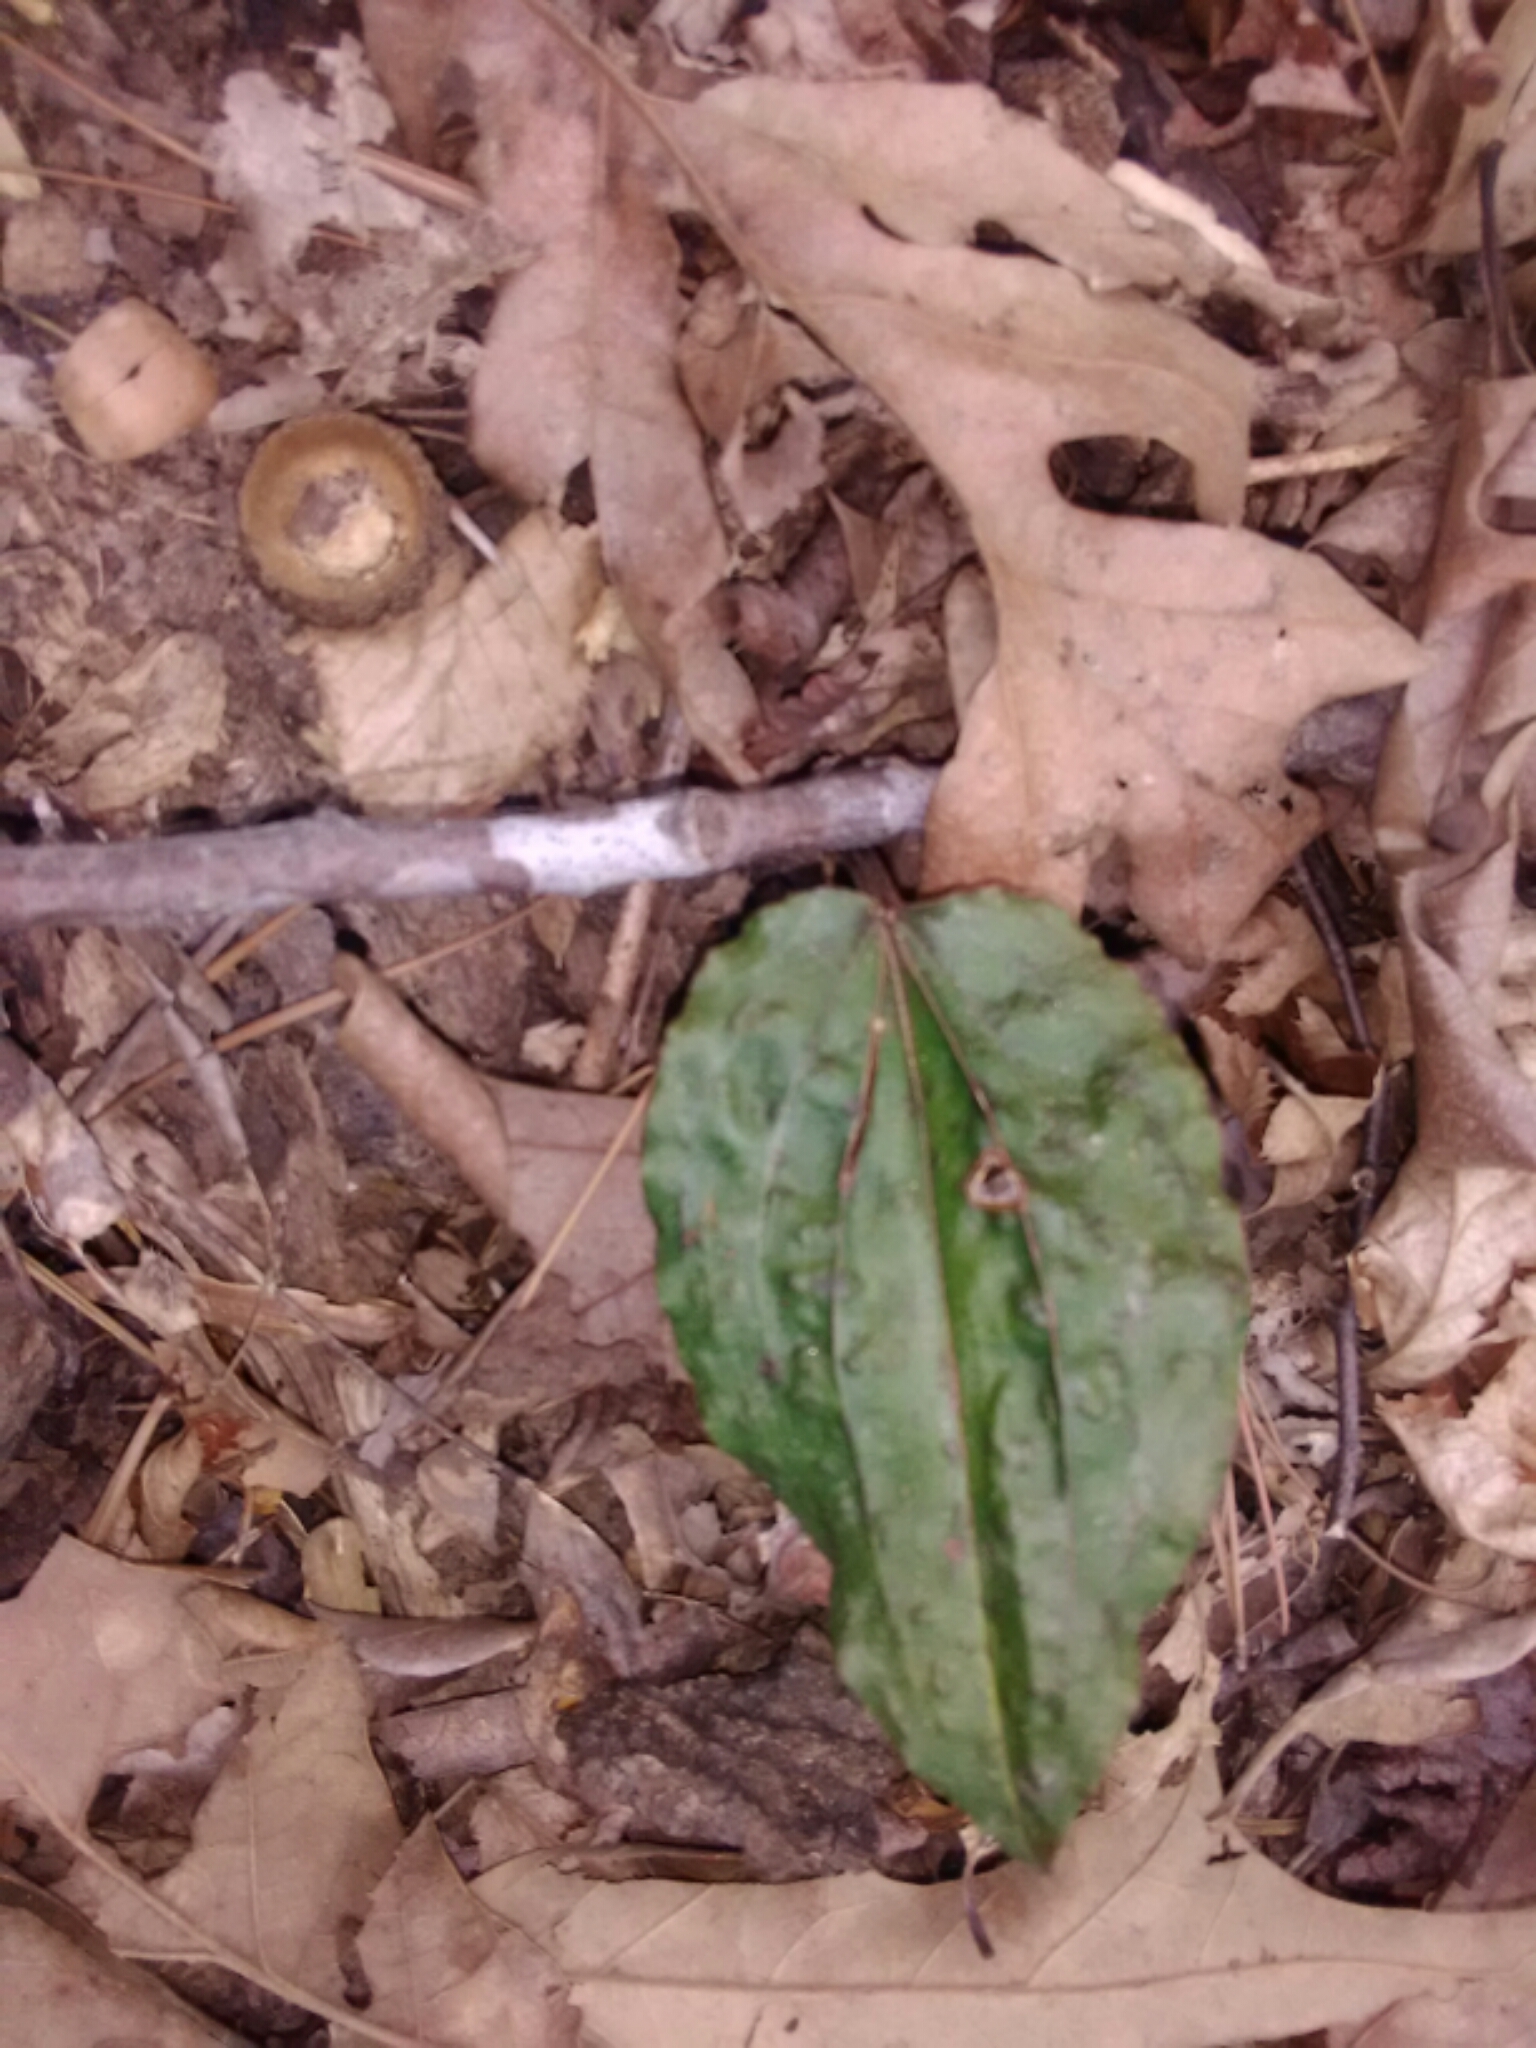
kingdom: Plantae
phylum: Tracheophyta
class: Liliopsida
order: Asparagales
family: Orchidaceae
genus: Tipularia
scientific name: Tipularia discolor
